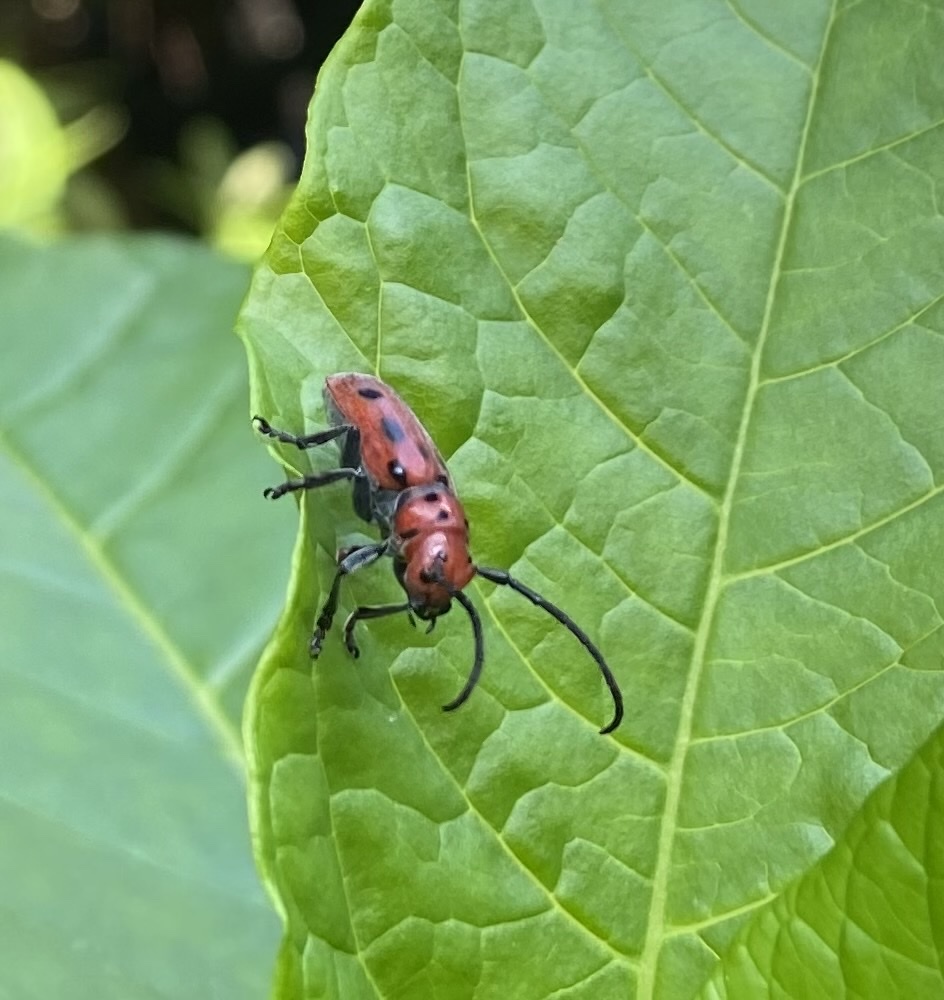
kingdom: Animalia
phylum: Arthropoda
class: Insecta
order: Coleoptera
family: Cerambycidae
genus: Tetraopes
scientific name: Tetraopes tetrophthalmus
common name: Red milkweed beetle
